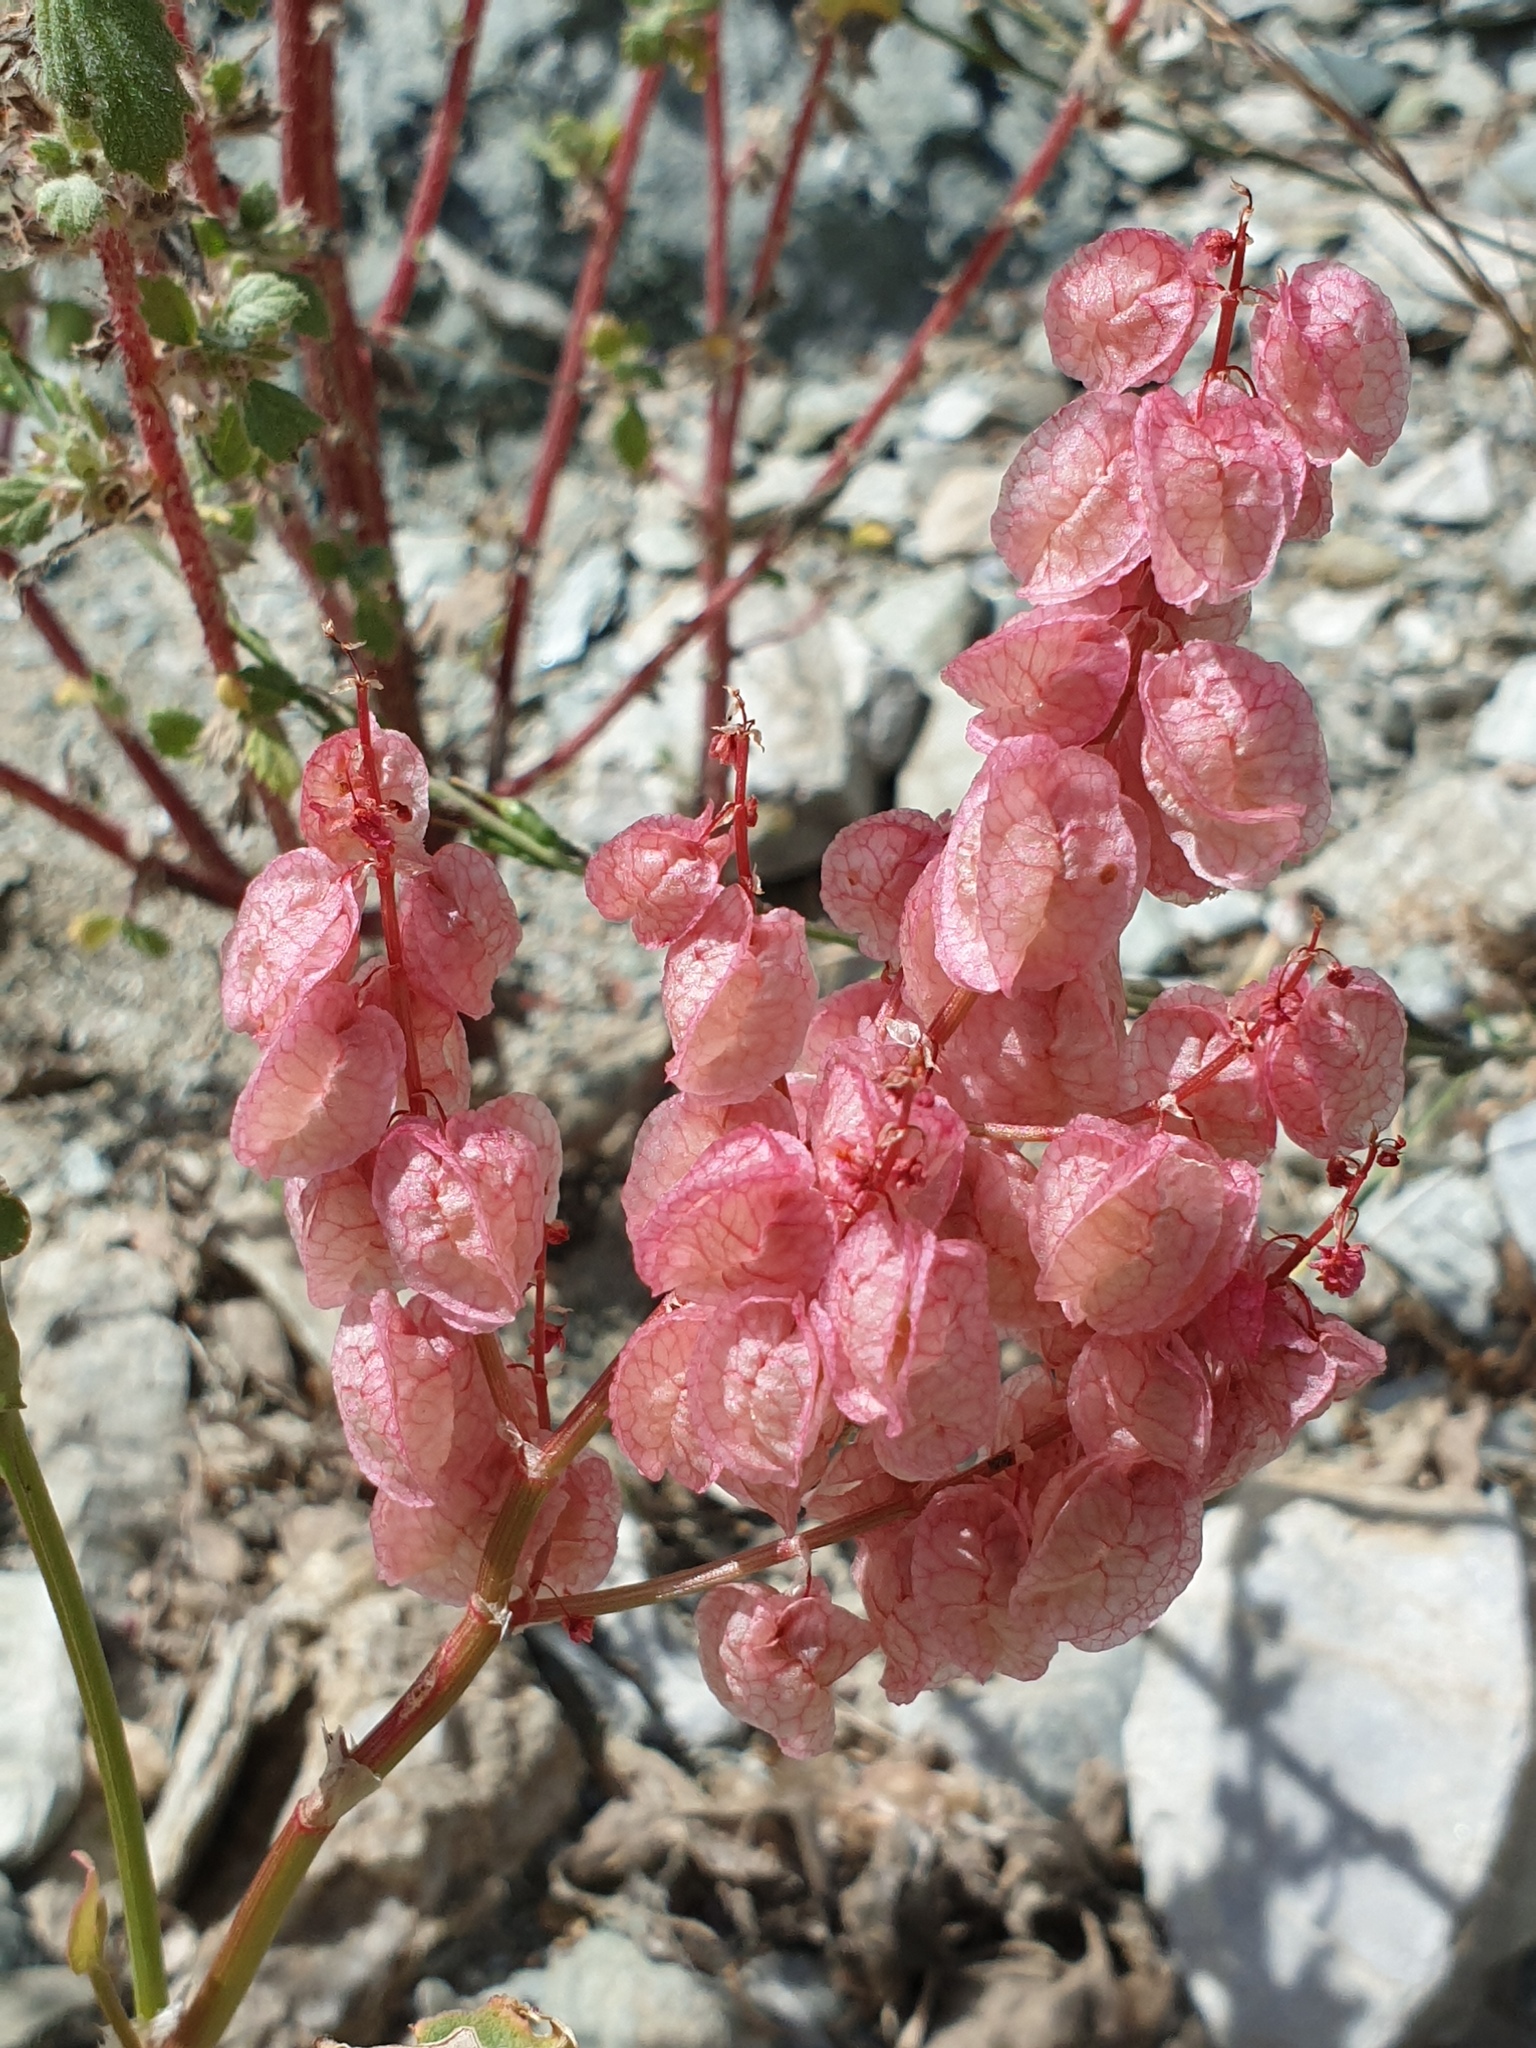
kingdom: Plantae
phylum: Tracheophyta
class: Magnoliopsida
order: Caryophyllales
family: Polygonaceae
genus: Rumex
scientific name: Rumex vesicarius
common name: Bladder dock
